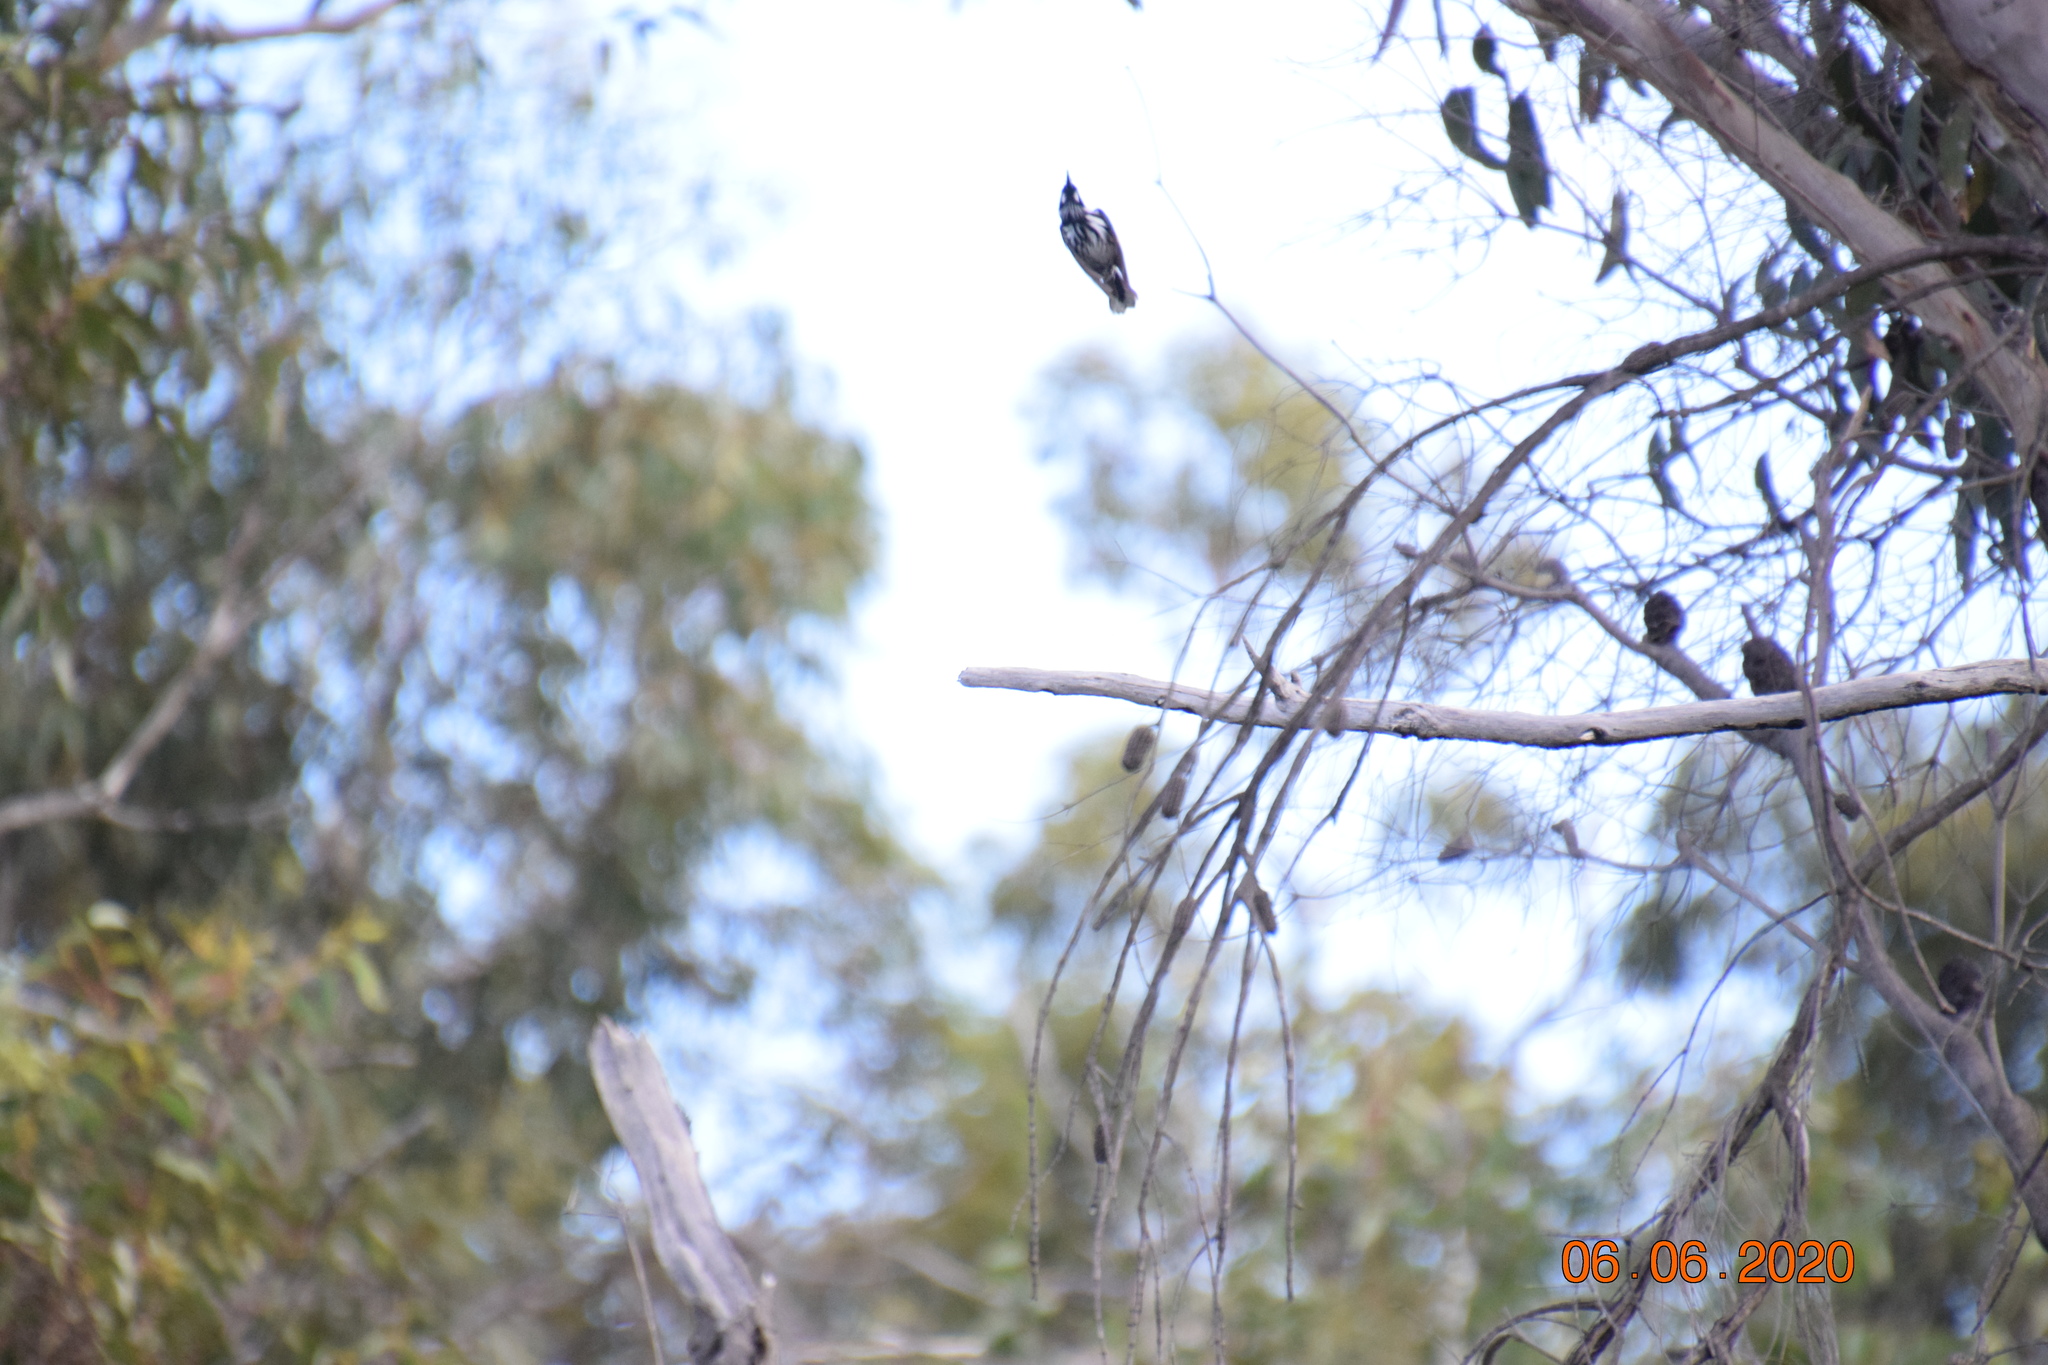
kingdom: Animalia
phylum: Chordata
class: Aves
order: Passeriformes
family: Meliphagidae
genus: Phylidonyris
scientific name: Phylidonyris novaehollandiae
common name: New holland honeyeater
